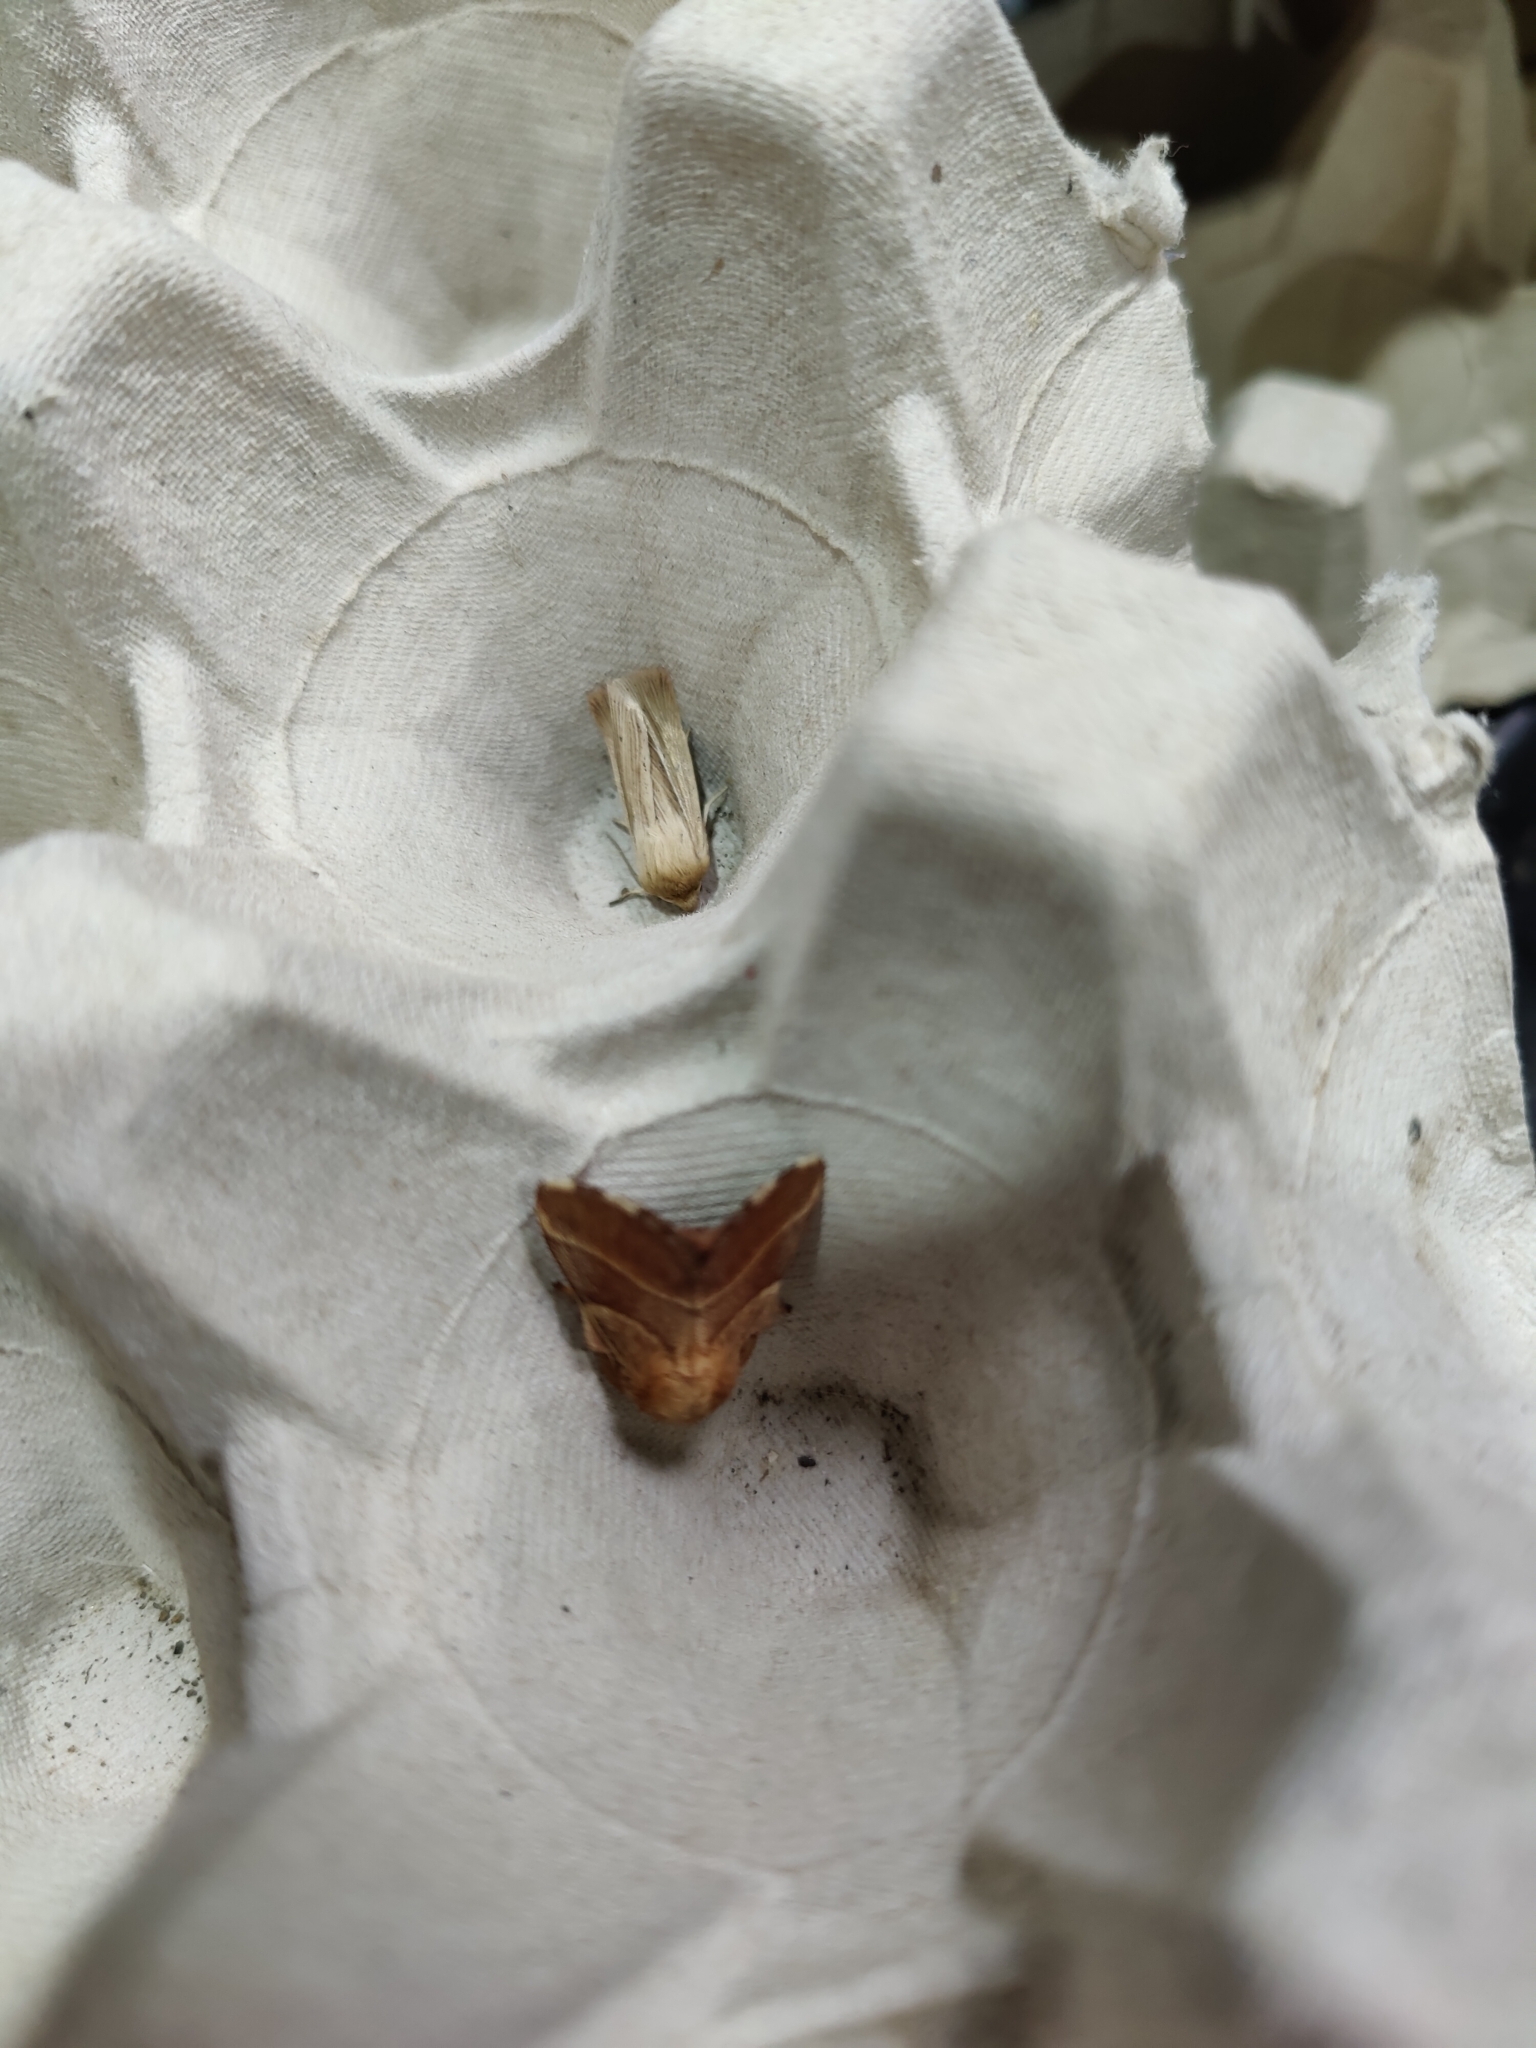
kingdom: Animalia
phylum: Arthropoda
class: Insecta
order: Lepidoptera
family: Lasiocampidae
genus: Malacosoma
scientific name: Malacosoma neustria
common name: The lackey
